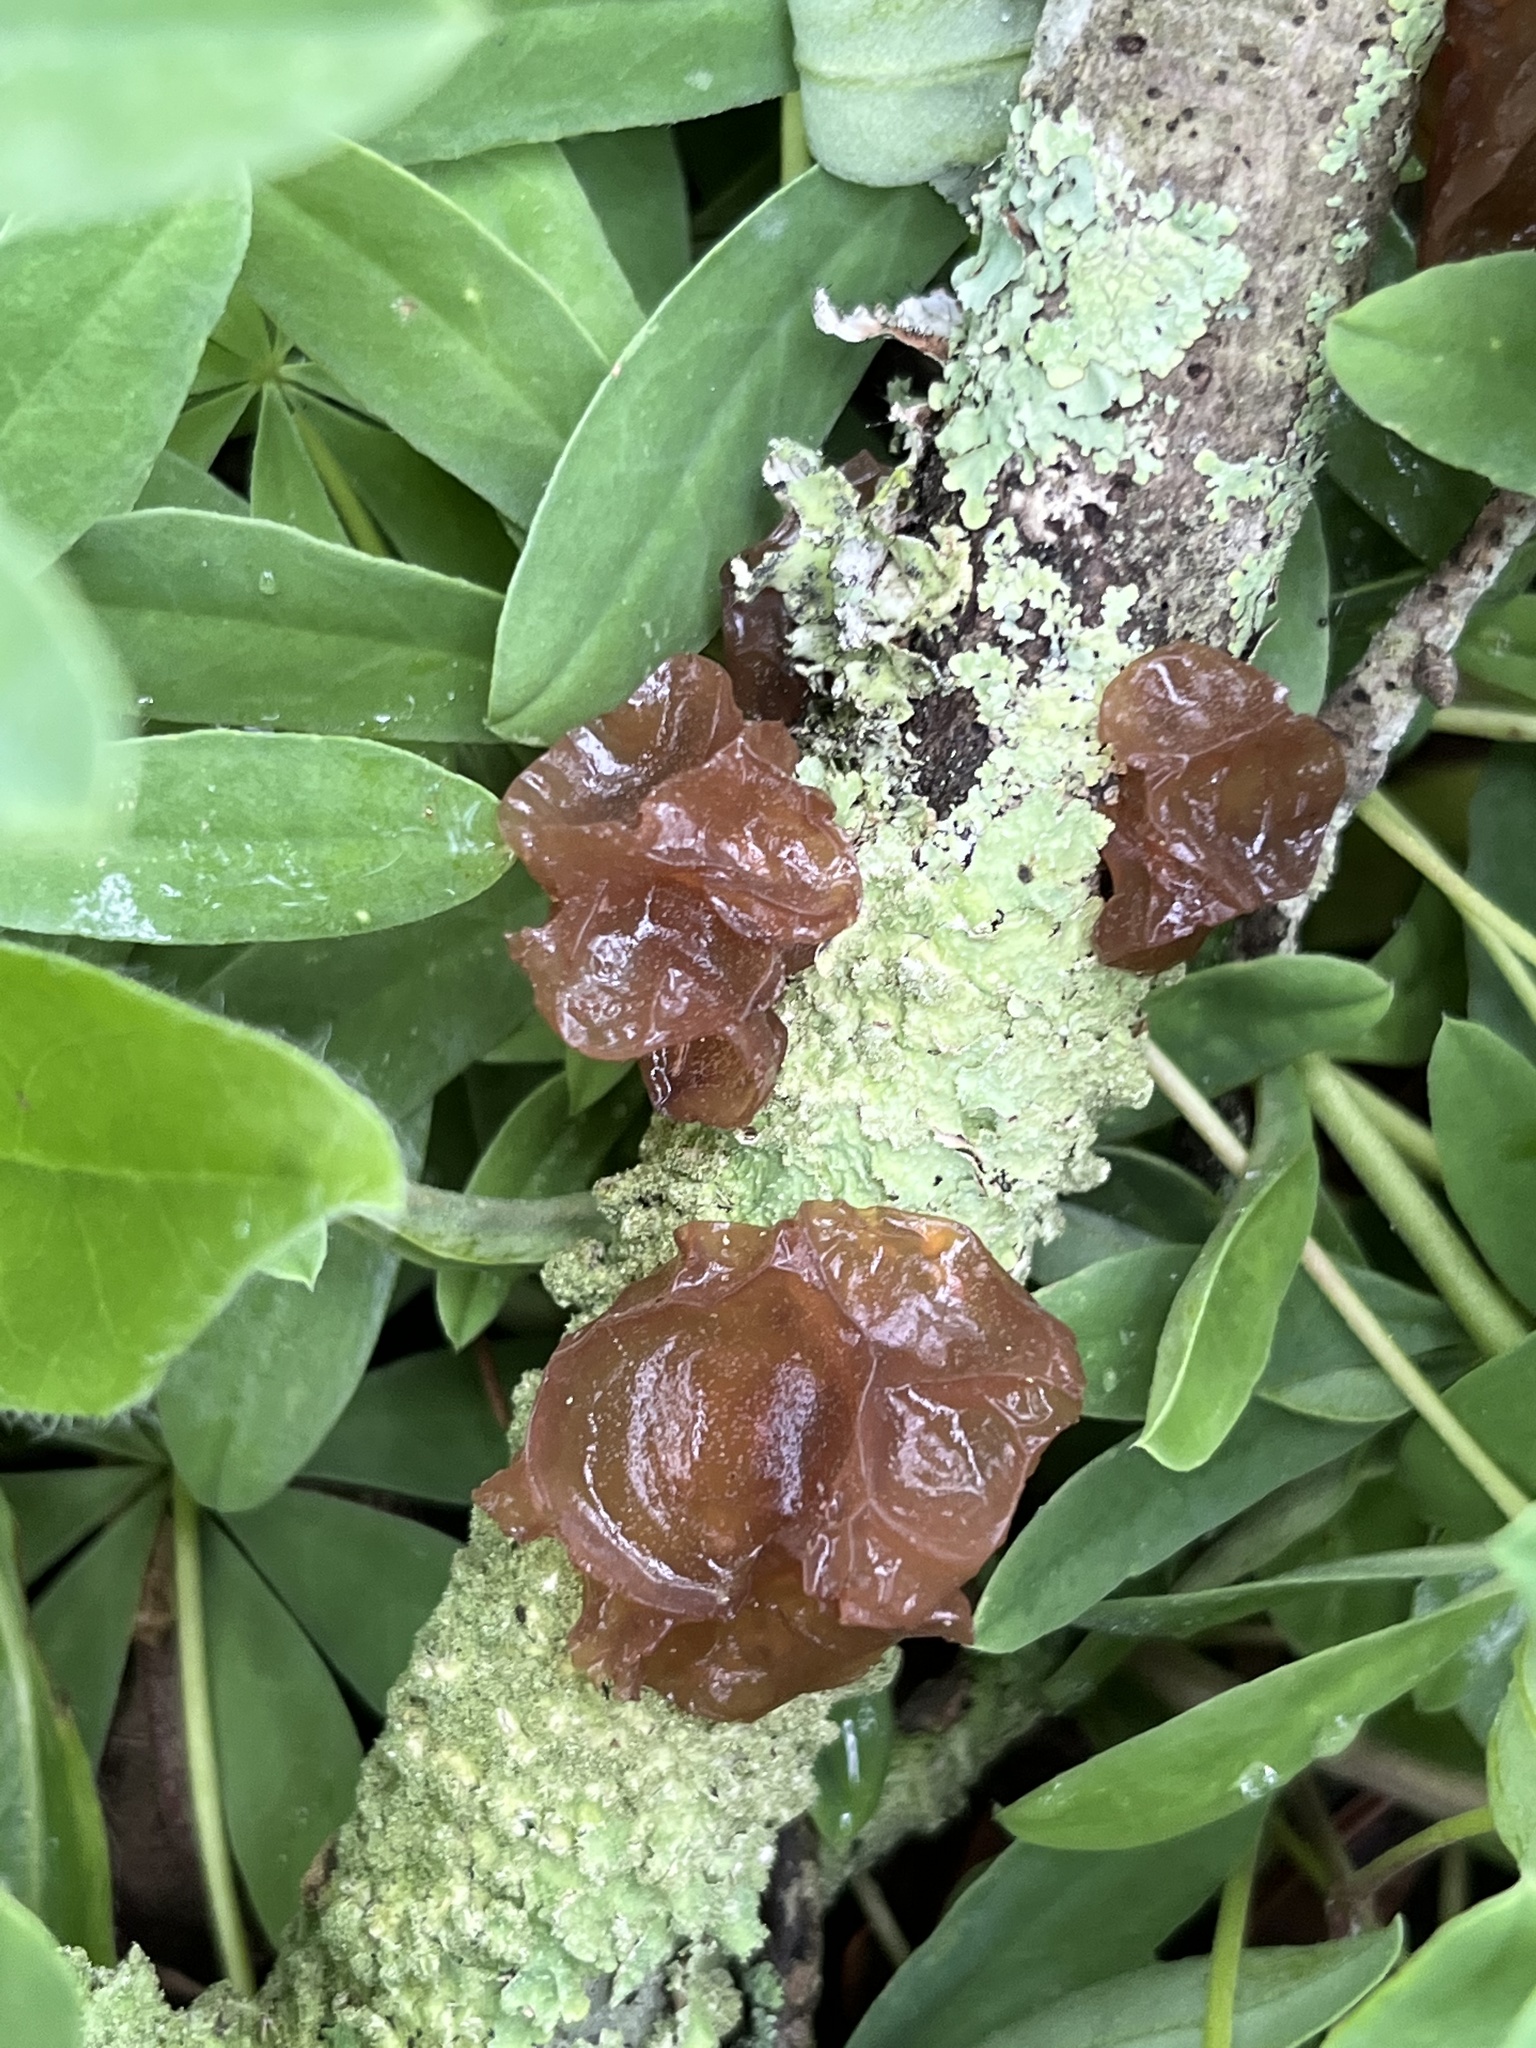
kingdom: Fungi
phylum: Basidiomycota
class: Agaricomycetes
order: Auriculariales
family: Auriculariaceae
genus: Exidia
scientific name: Exidia
